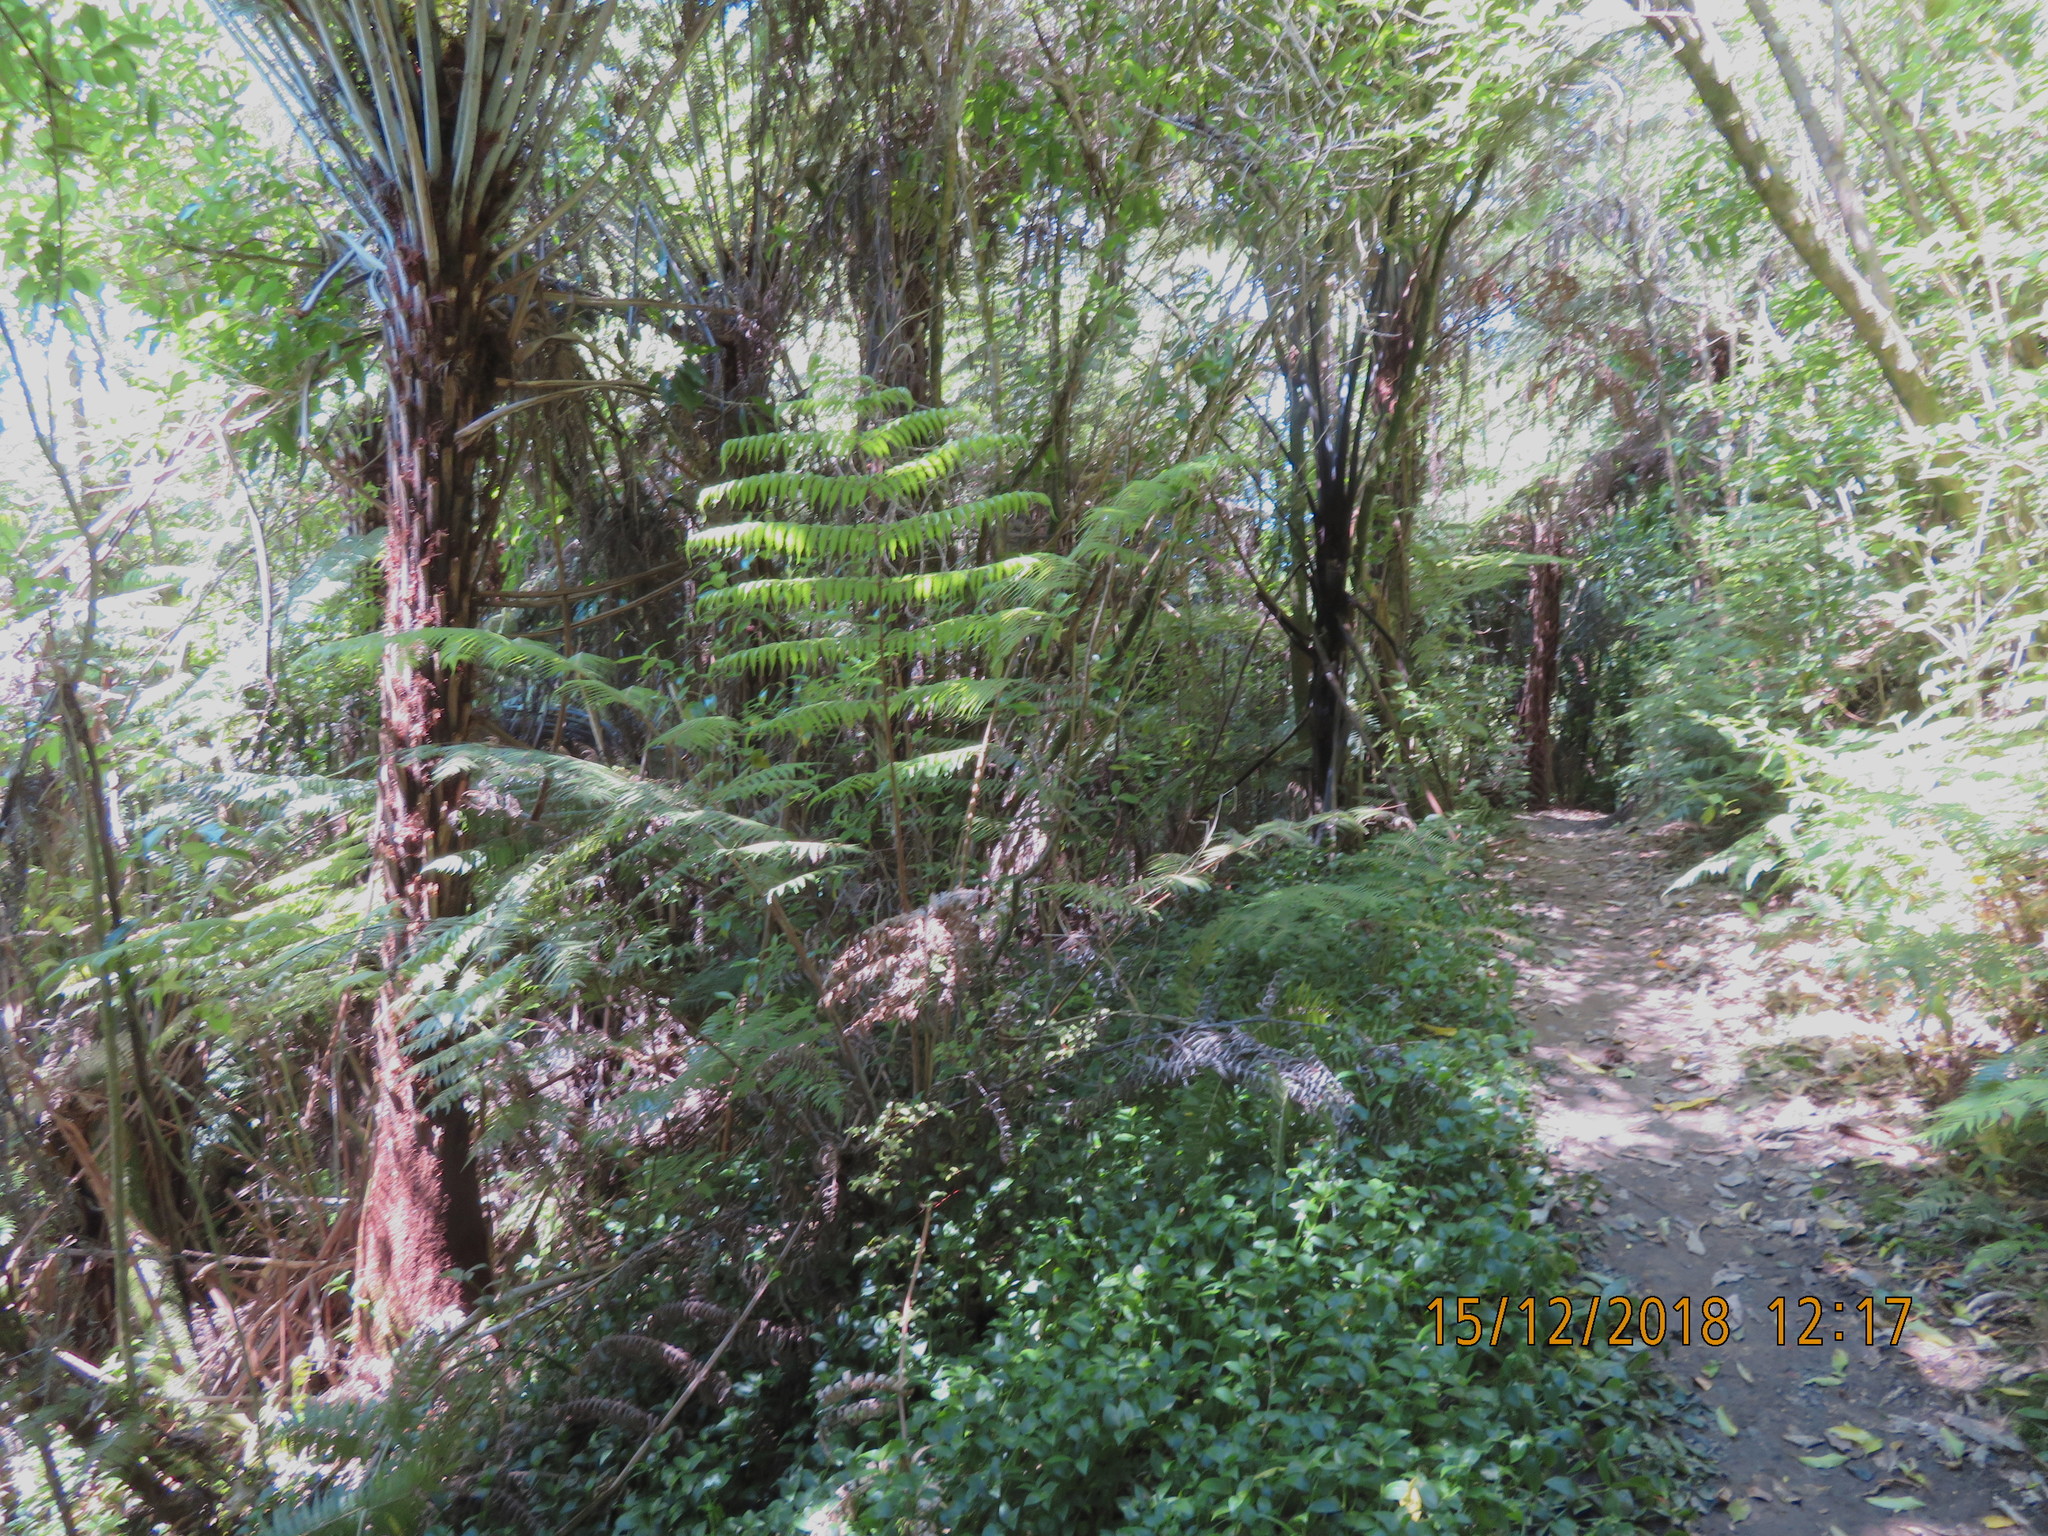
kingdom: Plantae
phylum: Tracheophyta
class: Polypodiopsida
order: Cyatheales
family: Cyatheaceae
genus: Alsophila
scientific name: Alsophila dealbata
